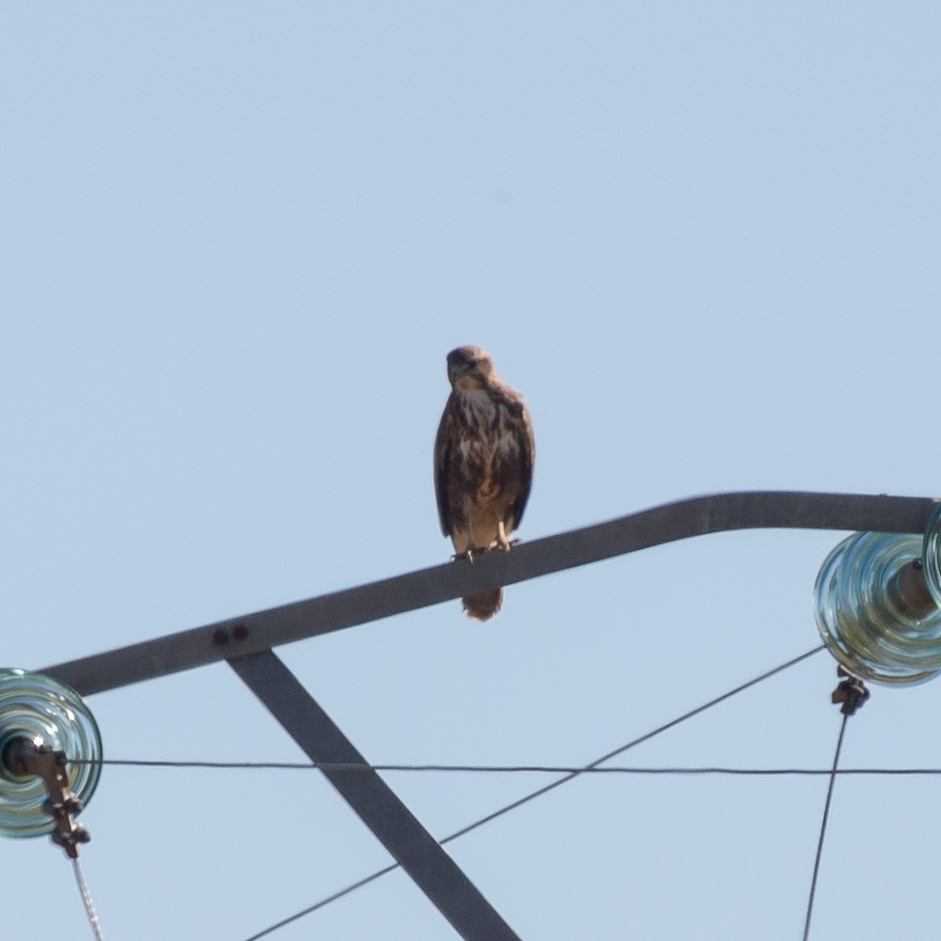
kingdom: Animalia
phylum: Chordata
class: Aves
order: Accipitriformes
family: Accipitridae
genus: Buteo
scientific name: Buteo buteo
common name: Common buzzard
